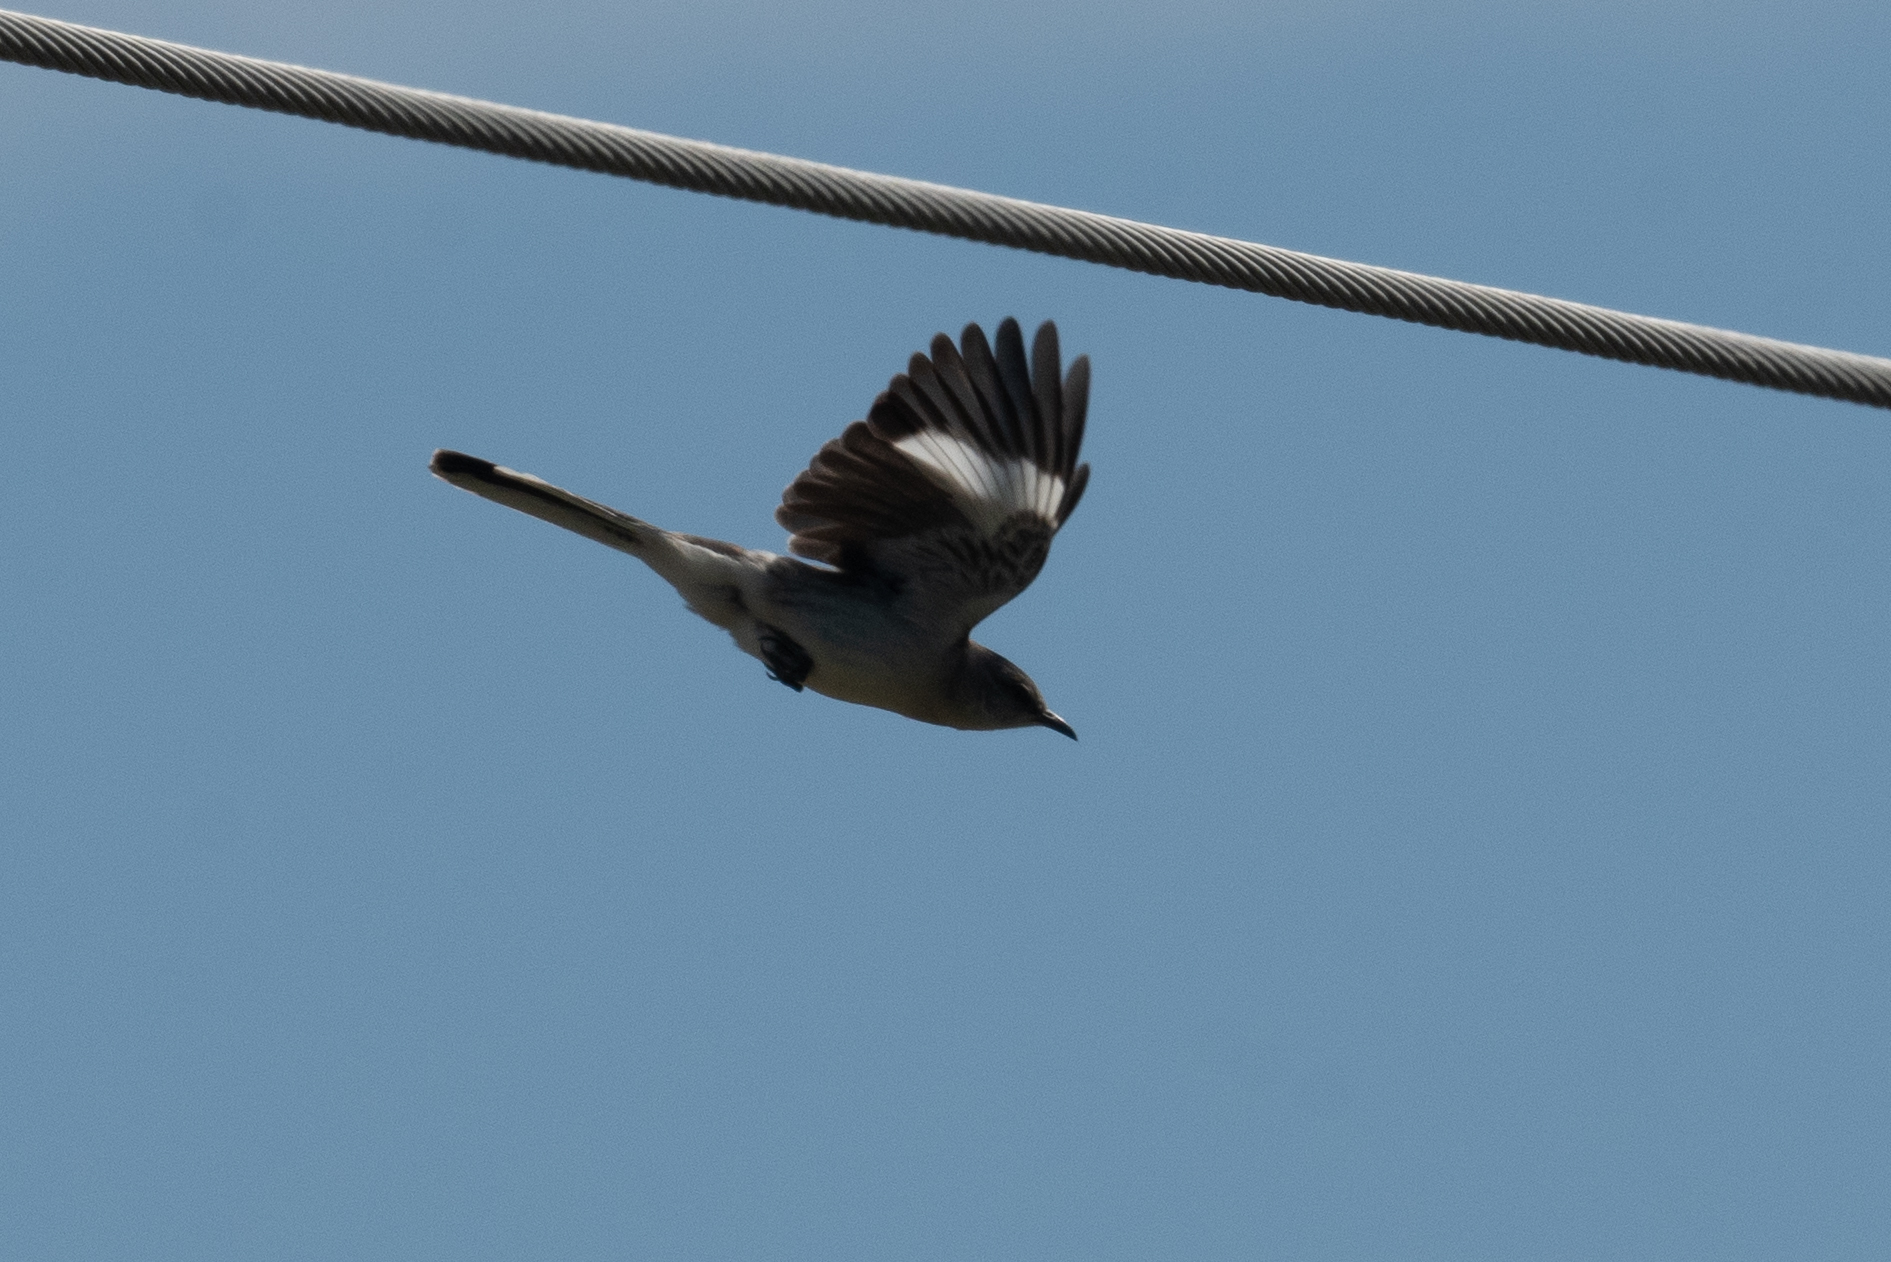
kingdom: Animalia
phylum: Chordata
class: Aves
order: Passeriformes
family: Mimidae
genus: Mimus
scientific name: Mimus polyglottos
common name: Northern mockingbird
